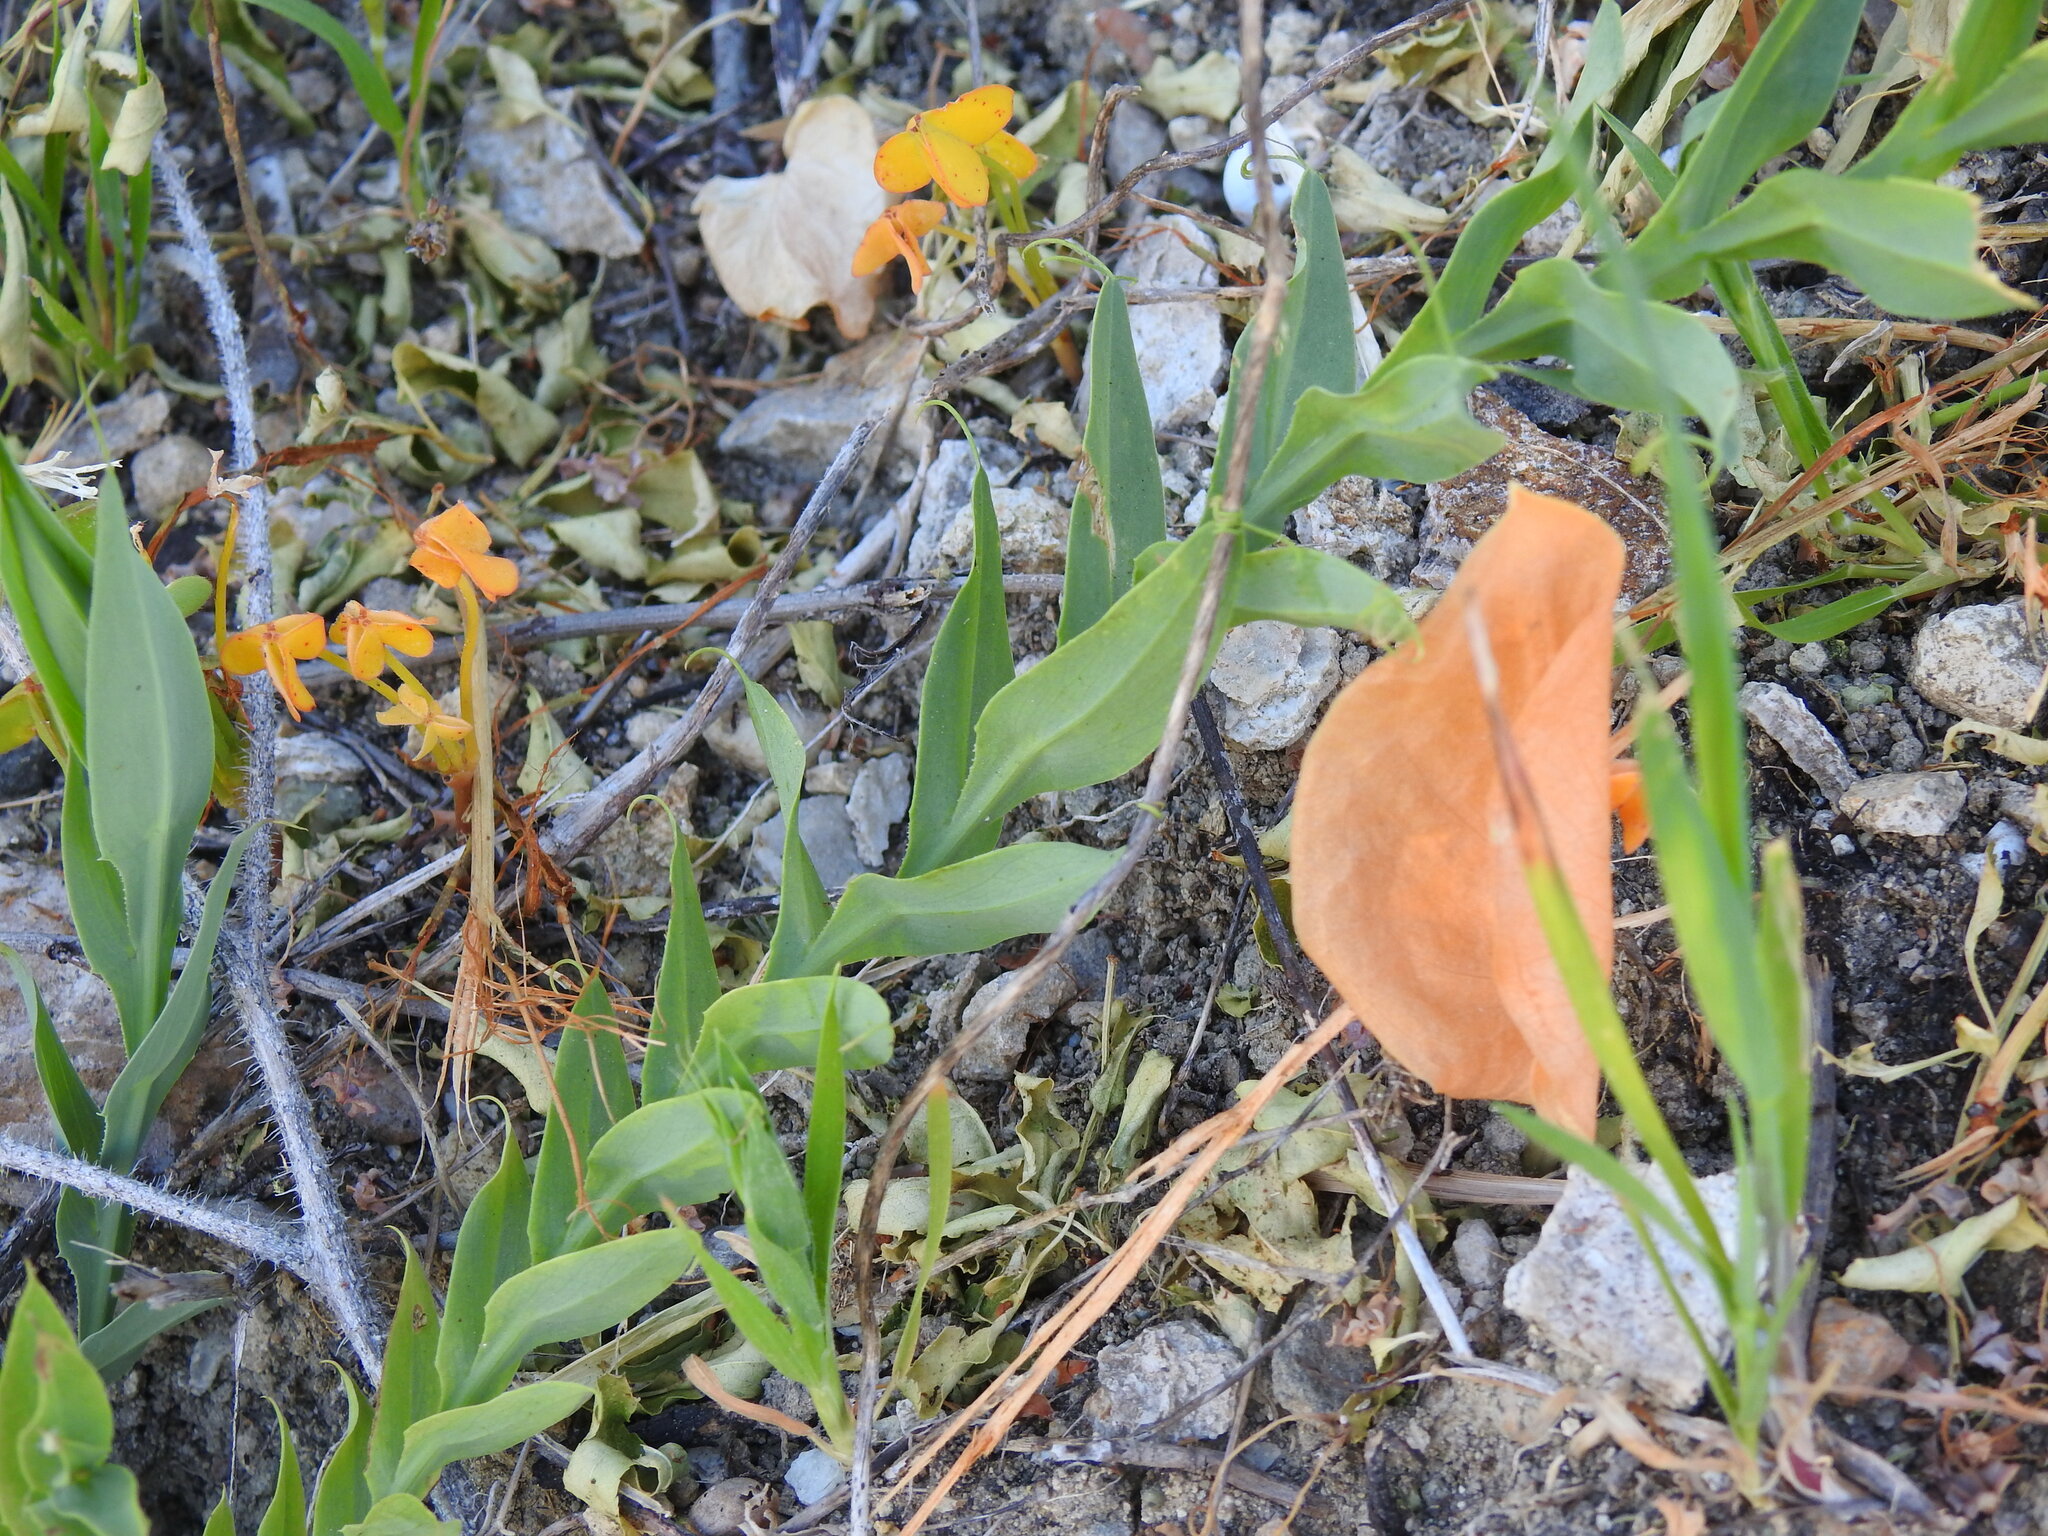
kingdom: Plantae
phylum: Tracheophyta
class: Magnoliopsida
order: Fabales
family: Fabaceae
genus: Lathyrus
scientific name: Lathyrus ochrus
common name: Winged vetchling
